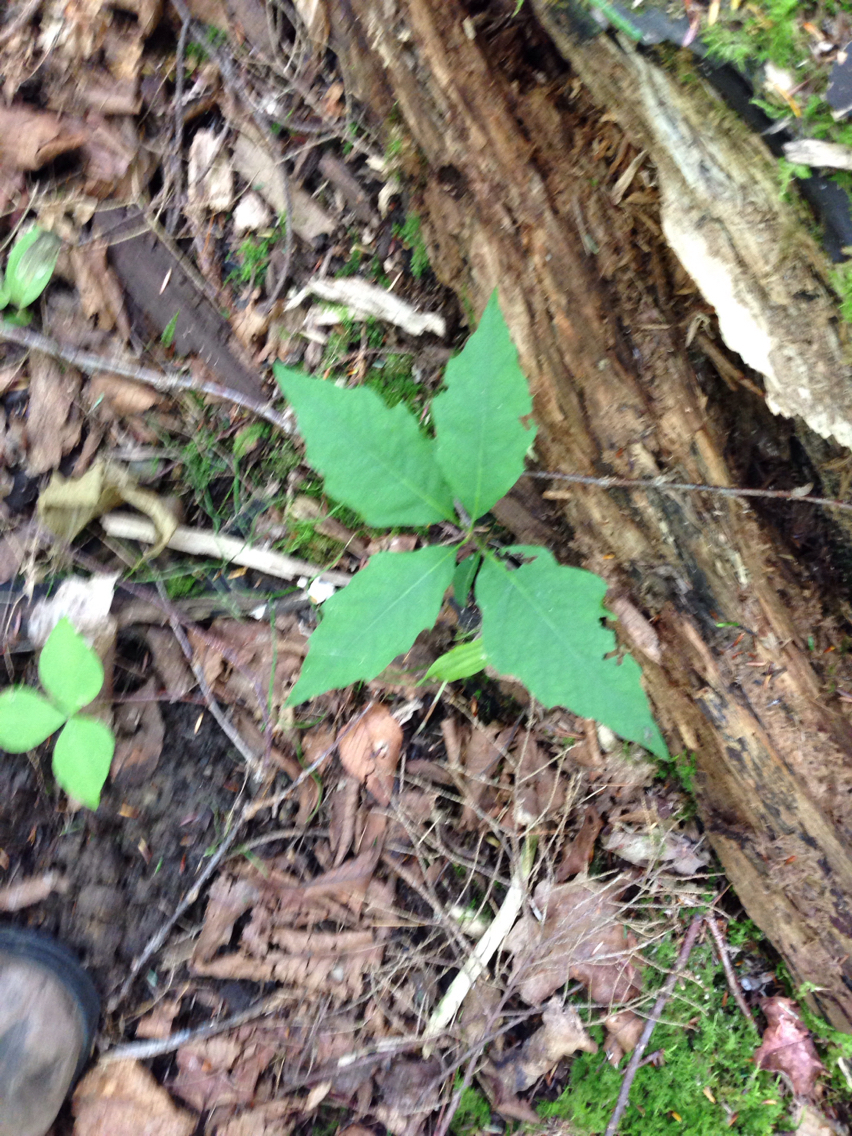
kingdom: Plantae
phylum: Tracheophyta
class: Magnoliopsida
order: Fagales
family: Fagaceae
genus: Quercus
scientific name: Quercus rubra
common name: Red oak
